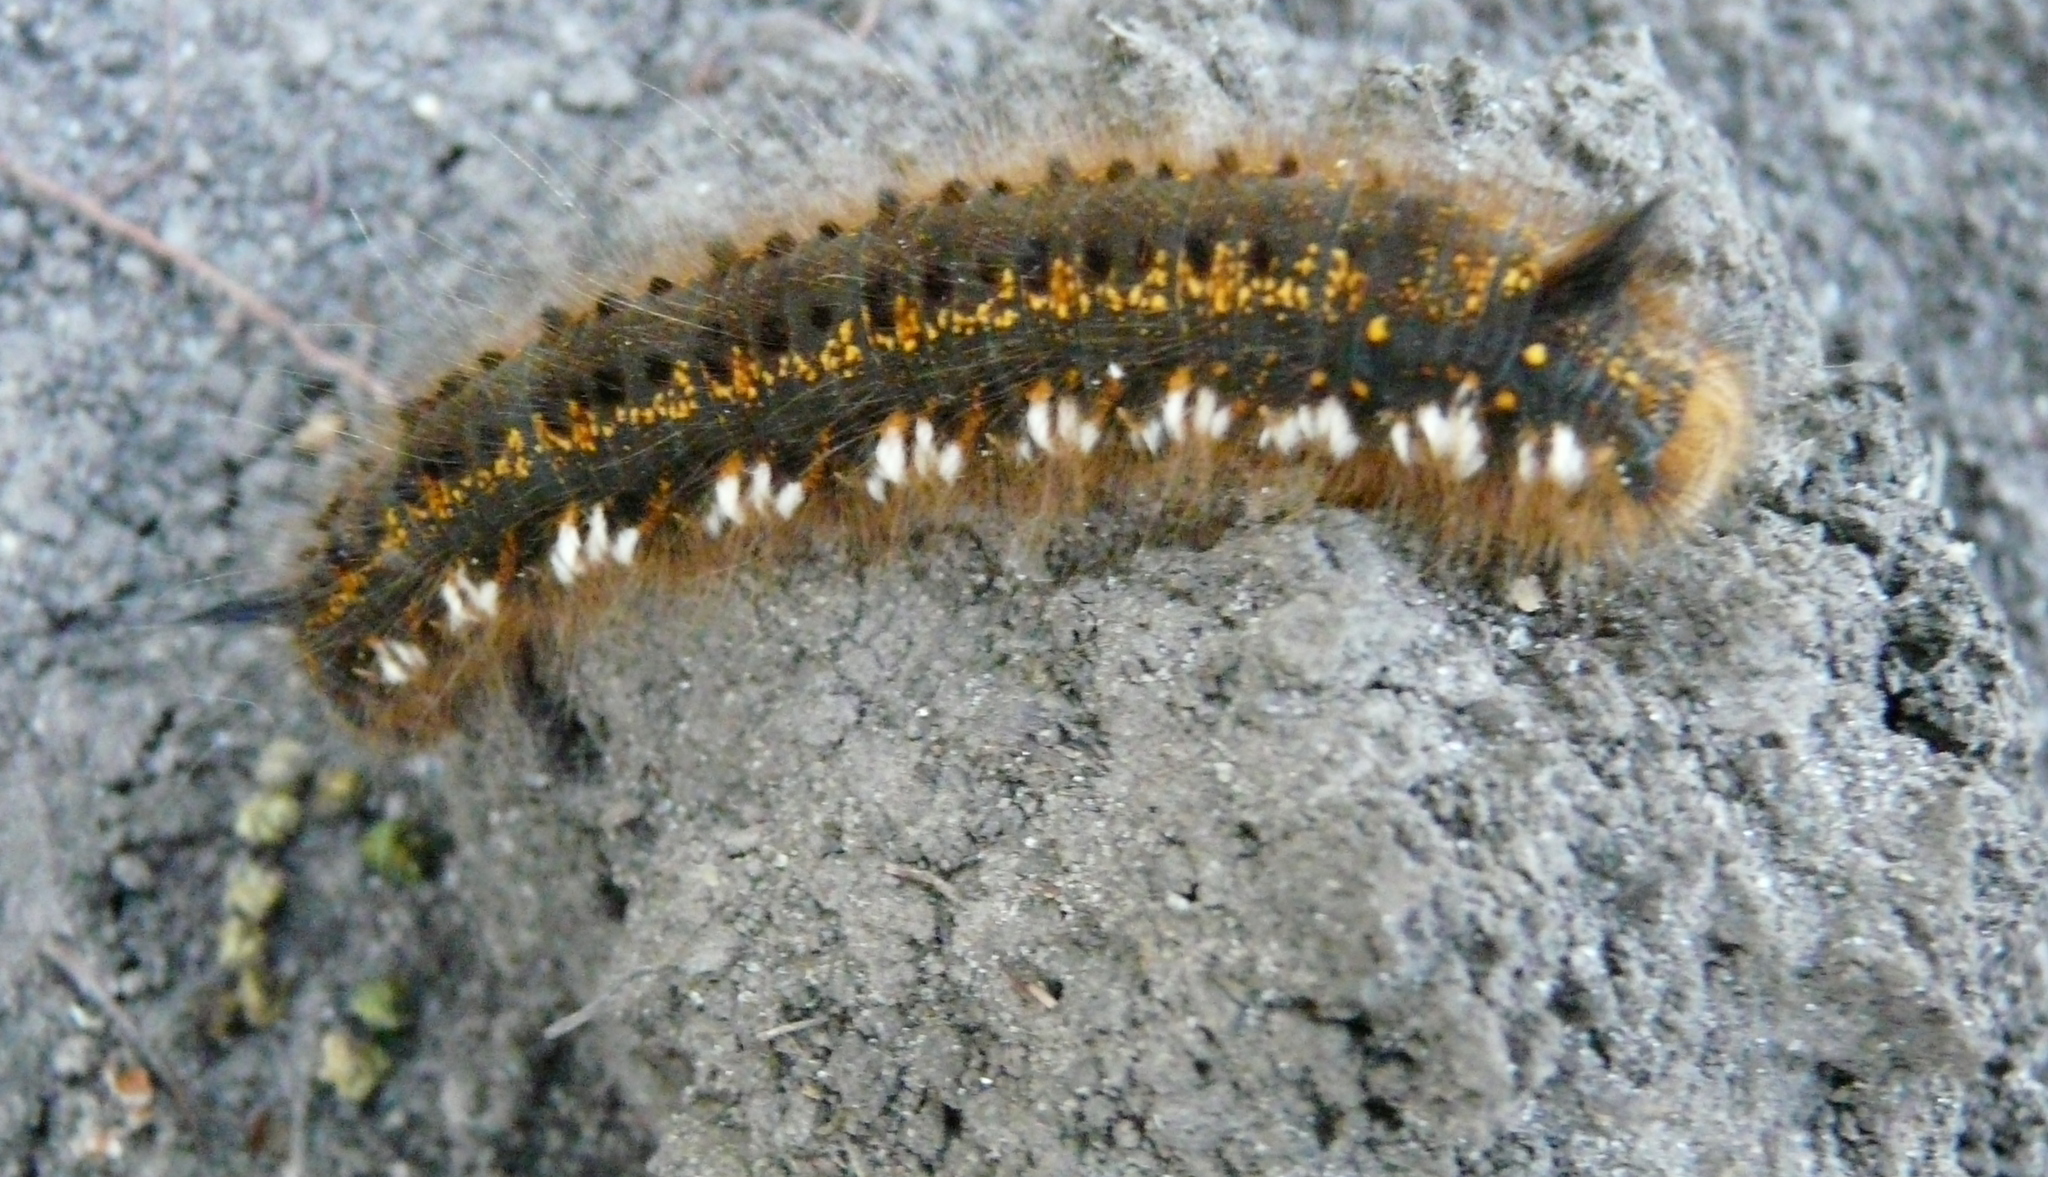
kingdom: Animalia
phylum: Arthropoda
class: Insecta
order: Lepidoptera
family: Lasiocampidae
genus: Euthrix
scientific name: Euthrix potatoria
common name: Drinker
